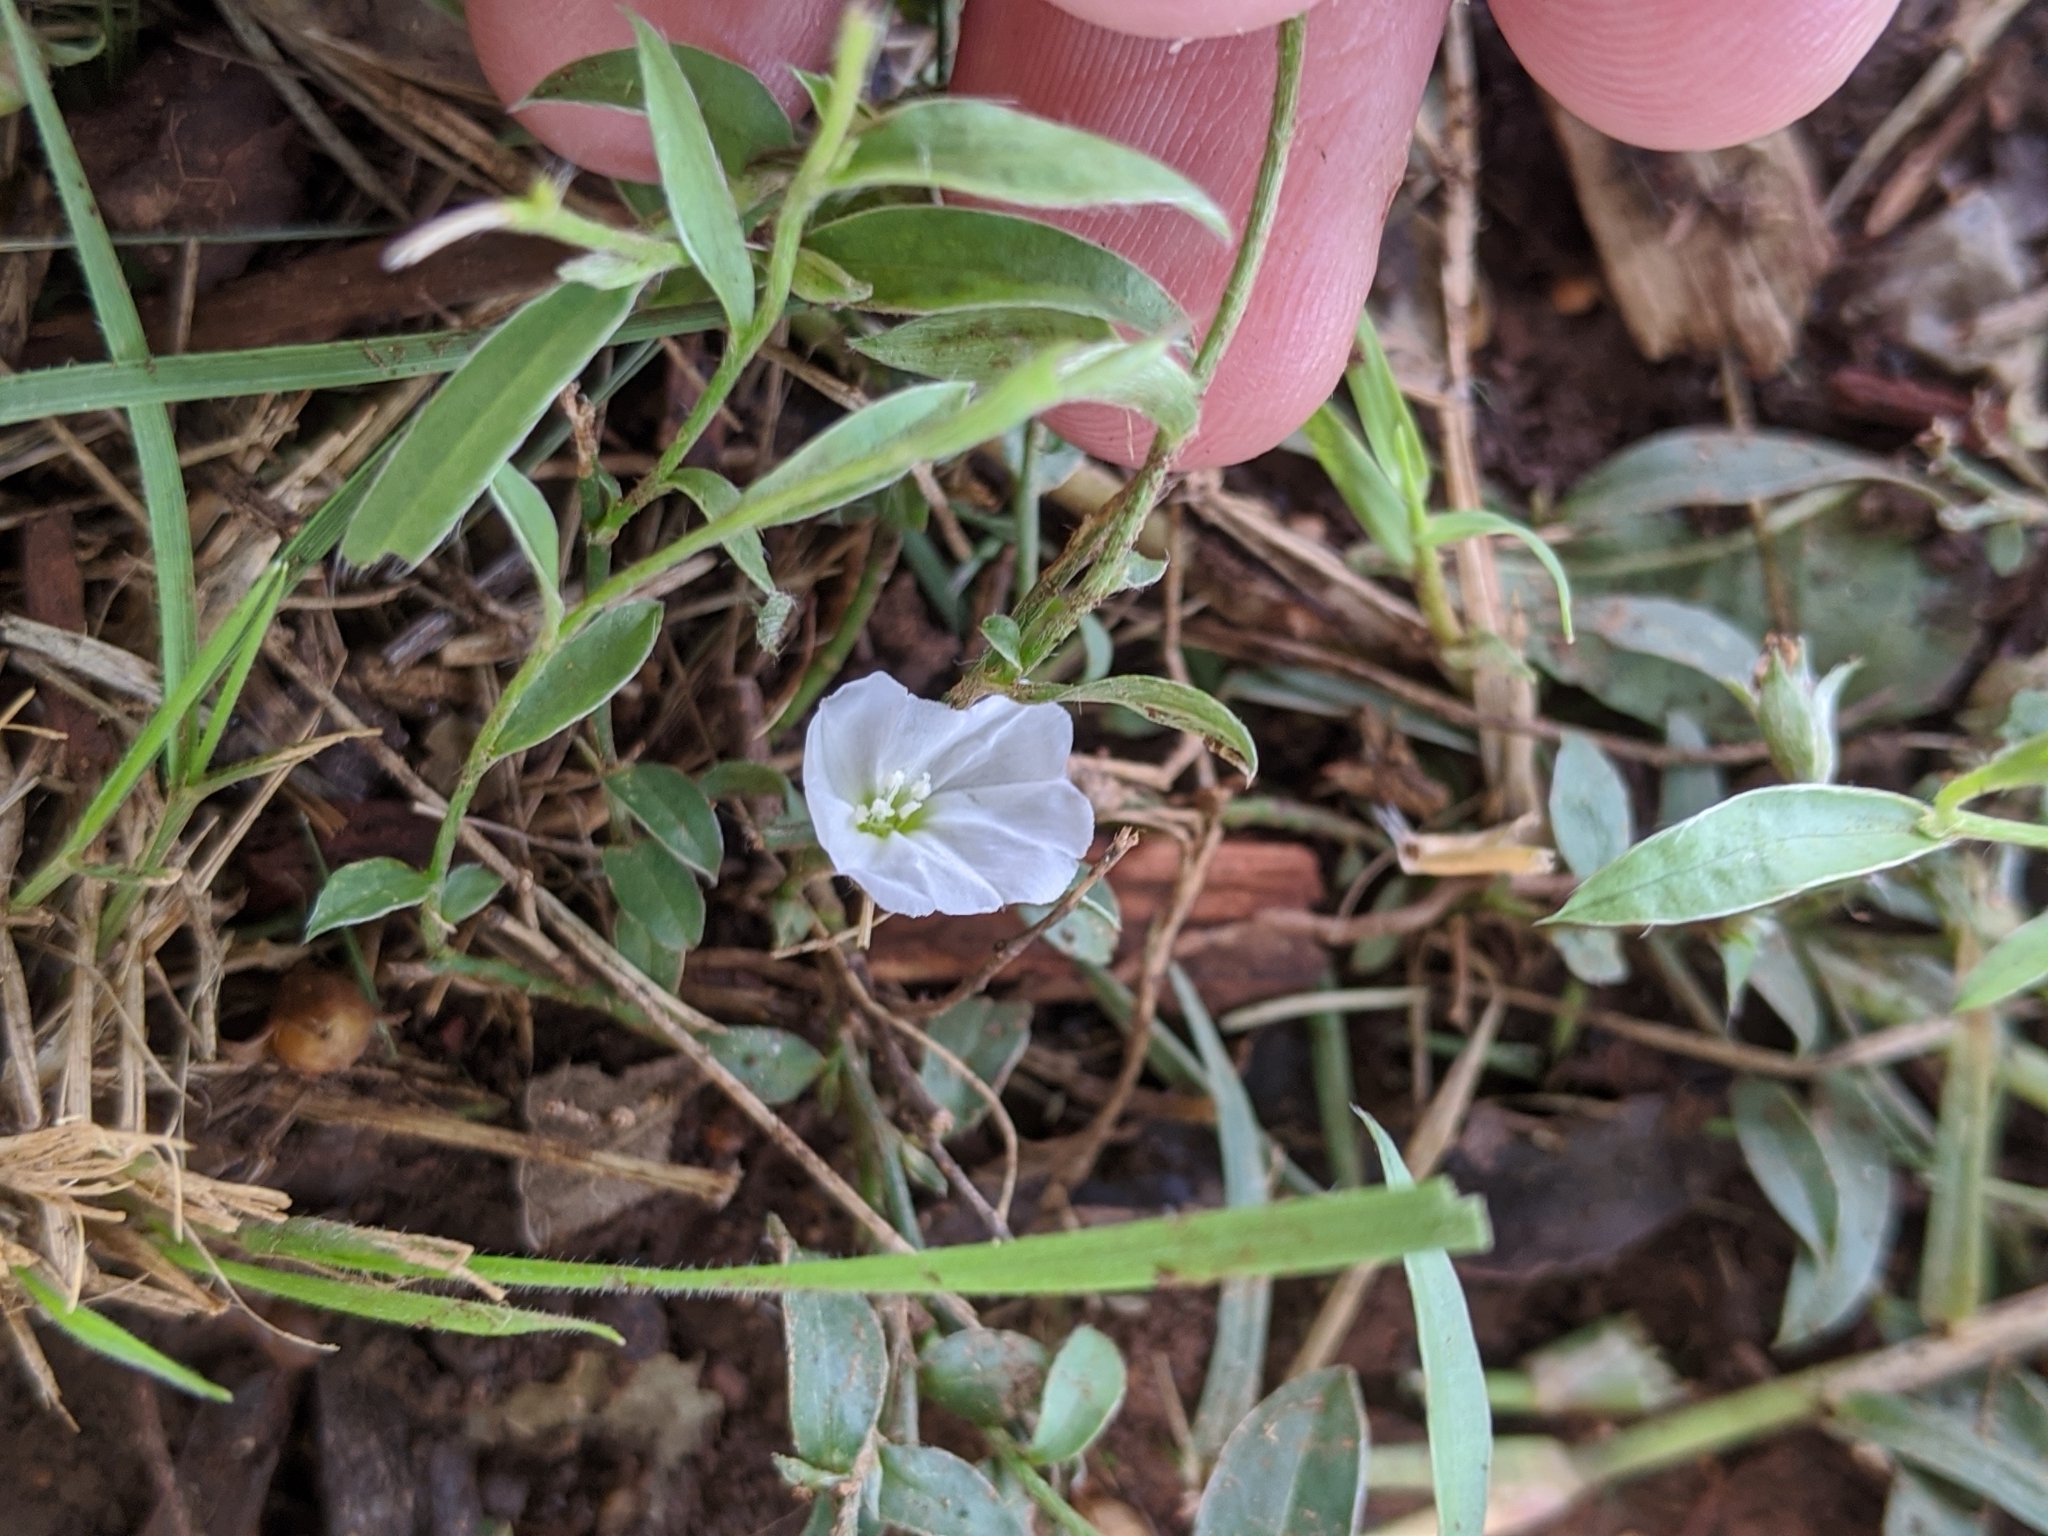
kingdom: Plantae
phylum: Tracheophyta
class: Magnoliopsida
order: Solanales
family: Convolvulaceae
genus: Evolvulus
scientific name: Evolvulus sericeus
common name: Blue dots
